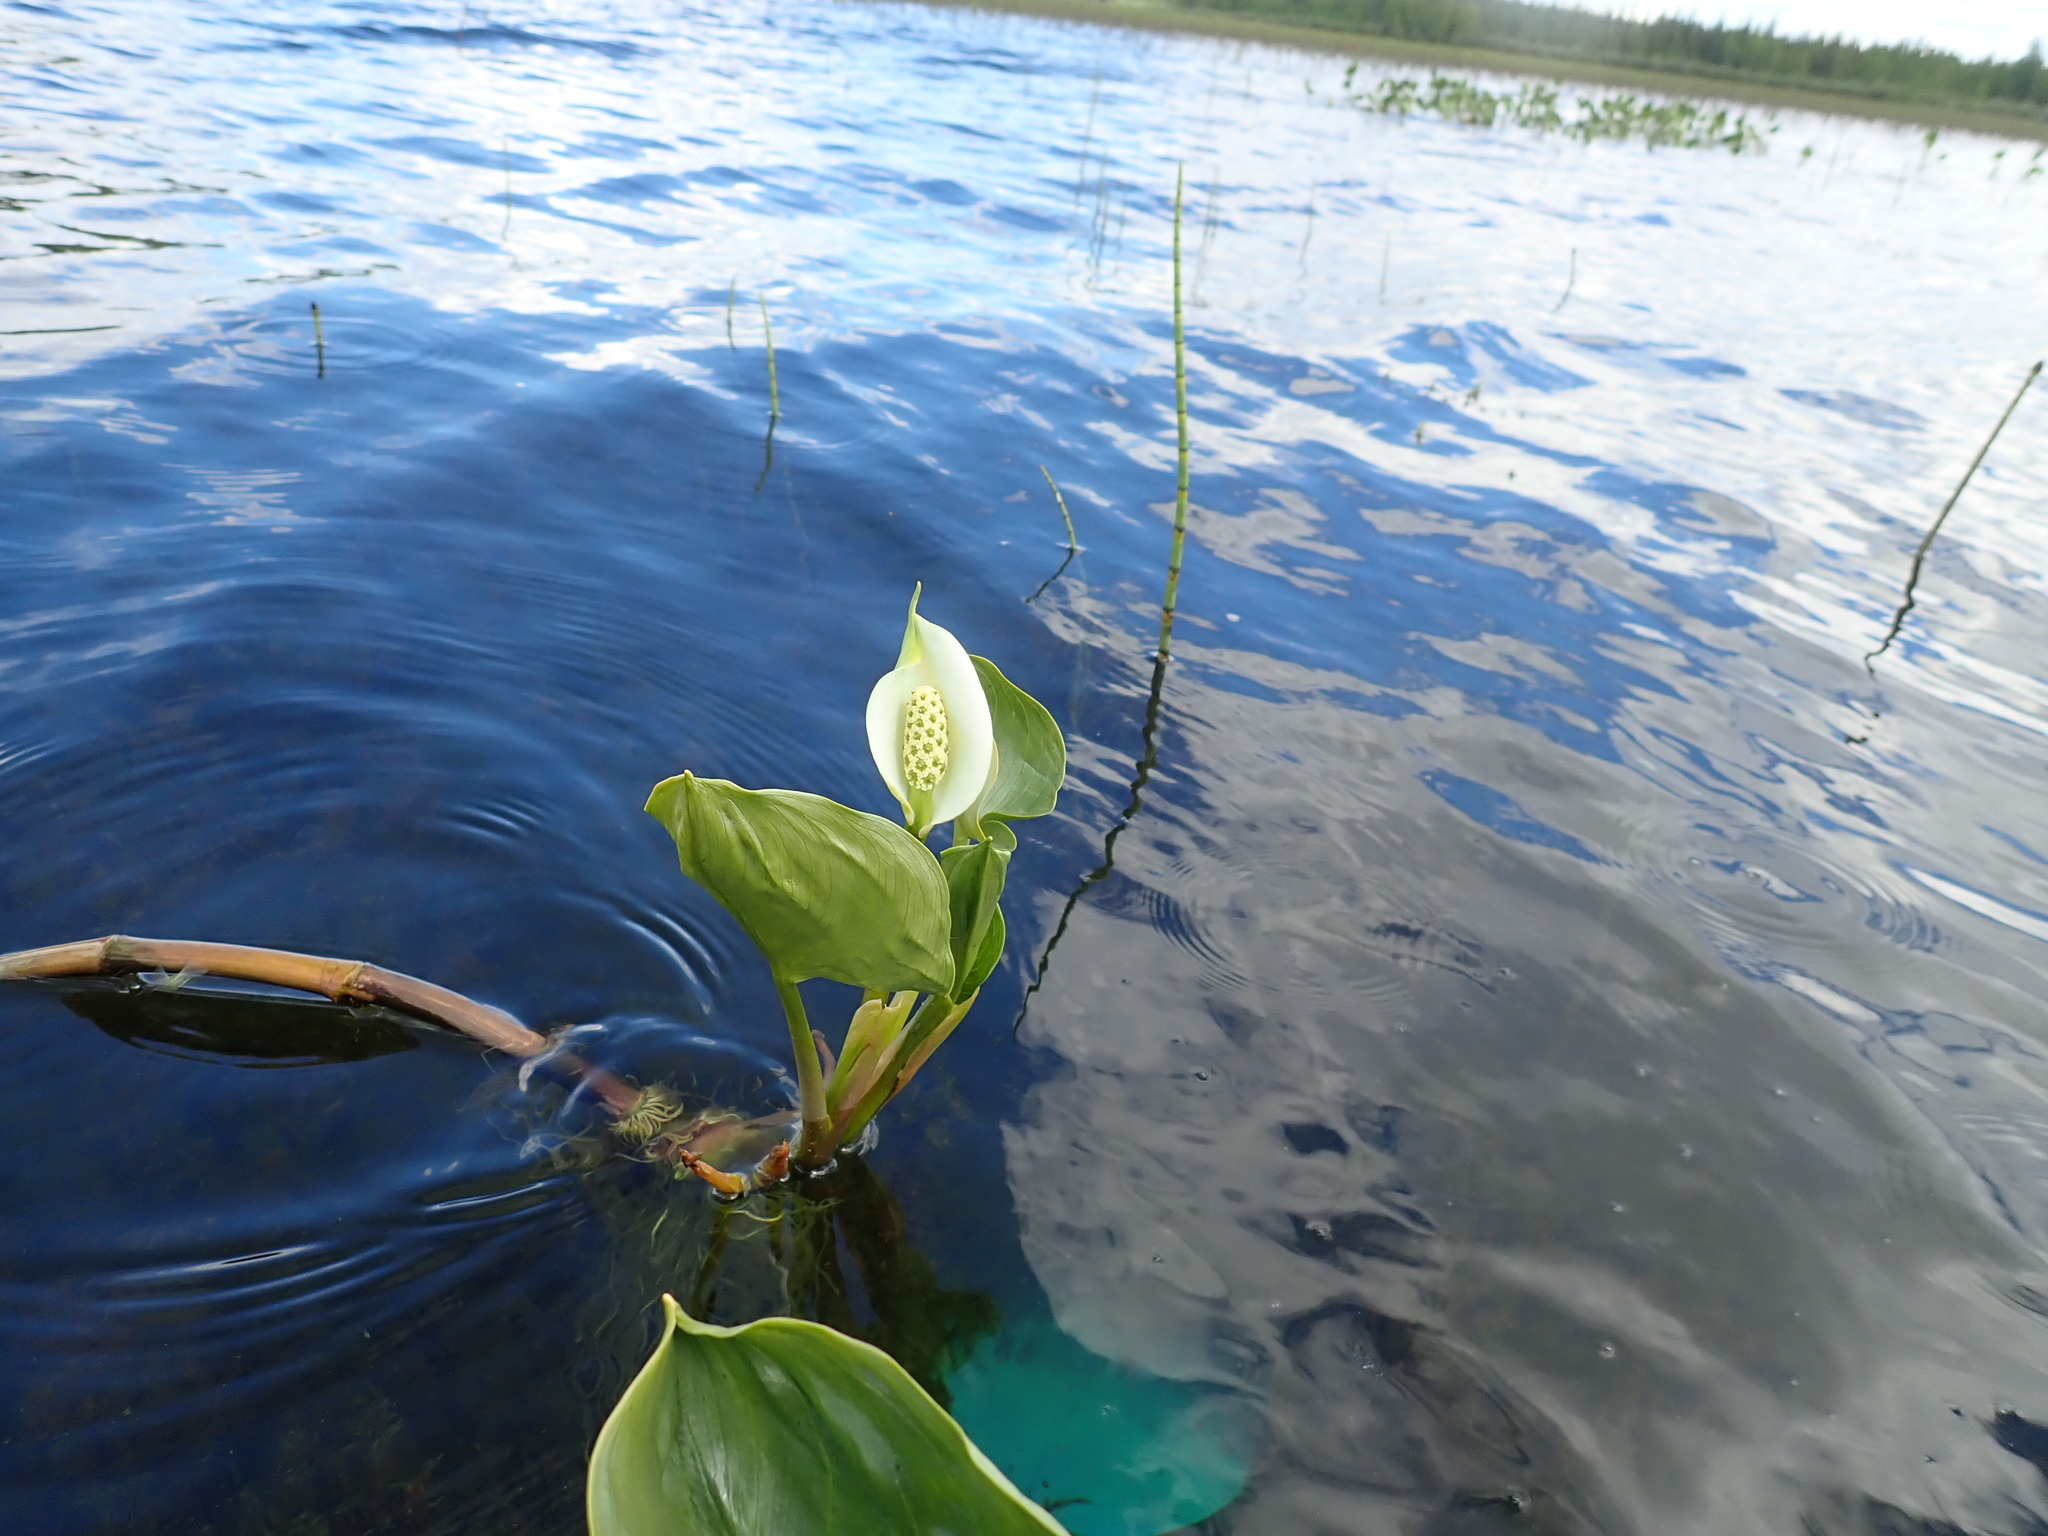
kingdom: Plantae
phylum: Tracheophyta
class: Liliopsida
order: Alismatales
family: Araceae
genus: Calla
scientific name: Calla palustris
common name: Bog arum
